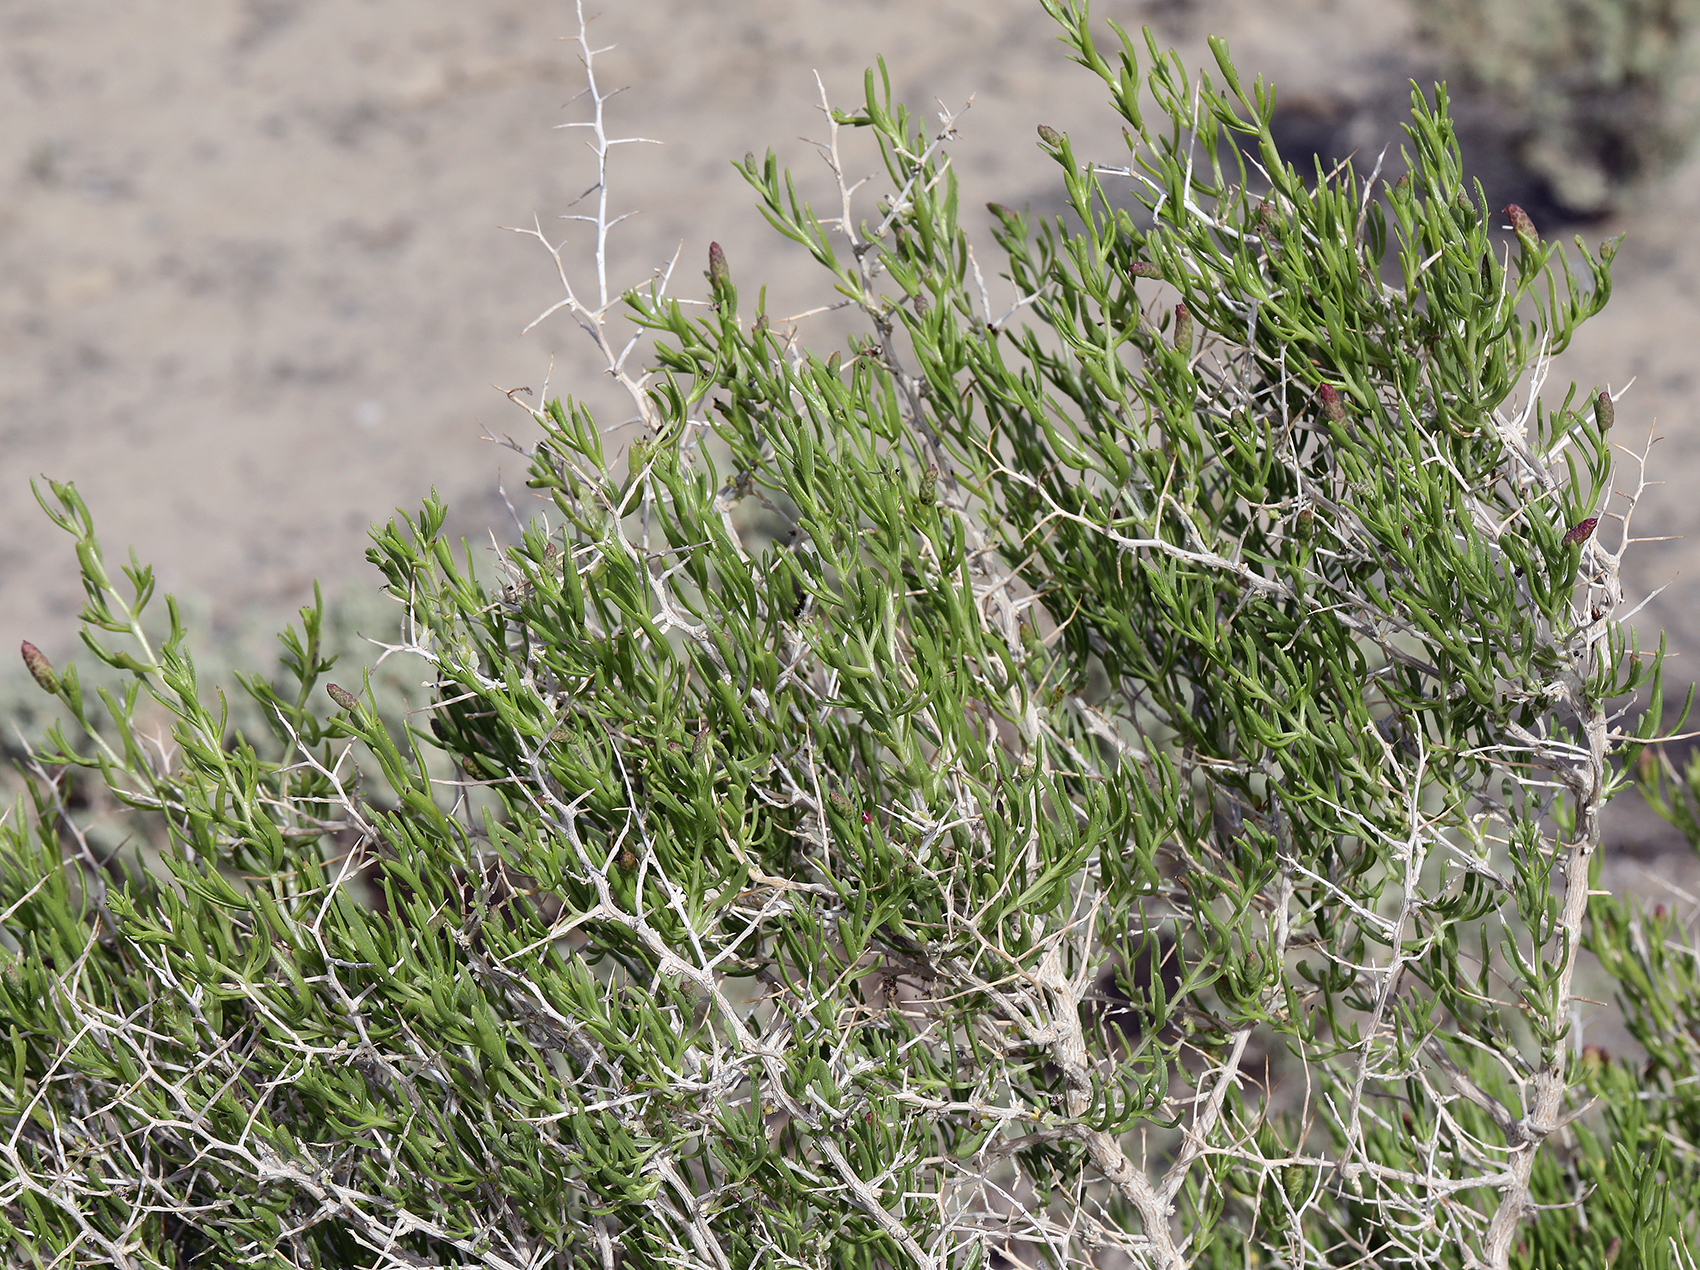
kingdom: Plantae
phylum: Tracheophyta
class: Magnoliopsida
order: Caryophyllales
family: Sarcobataceae
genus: Sarcobatus
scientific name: Sarcobatus vermiculatus
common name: Greasewood
